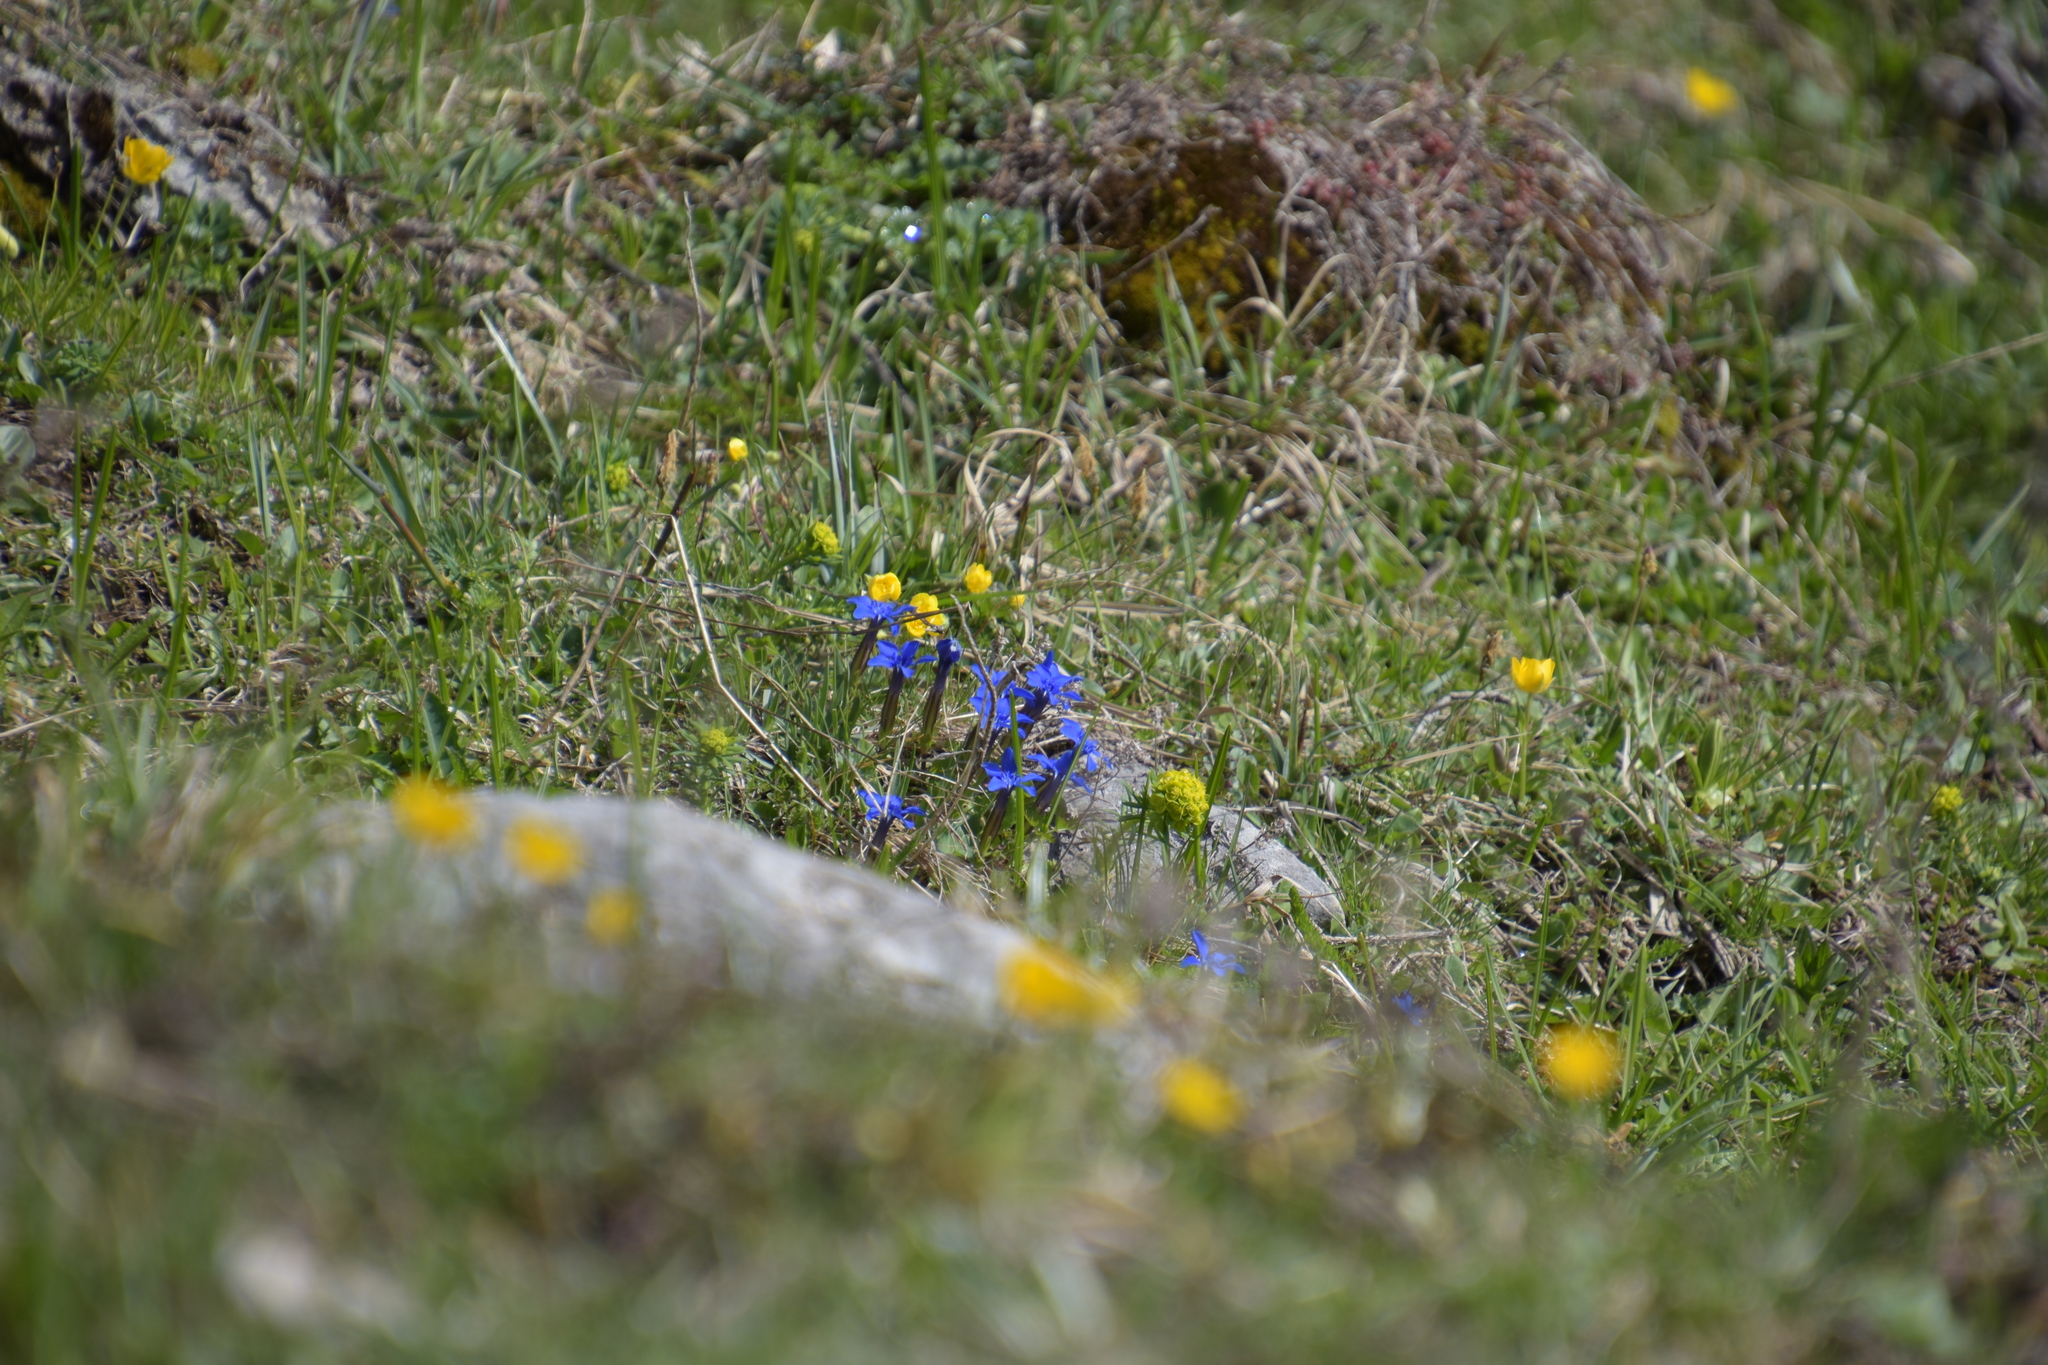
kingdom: Plantae
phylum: Tracheophyta
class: Magnoliopsida
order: Gentianales
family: Gentianaceae
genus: Gentiana
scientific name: Gentiana verna
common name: Spring gentian
